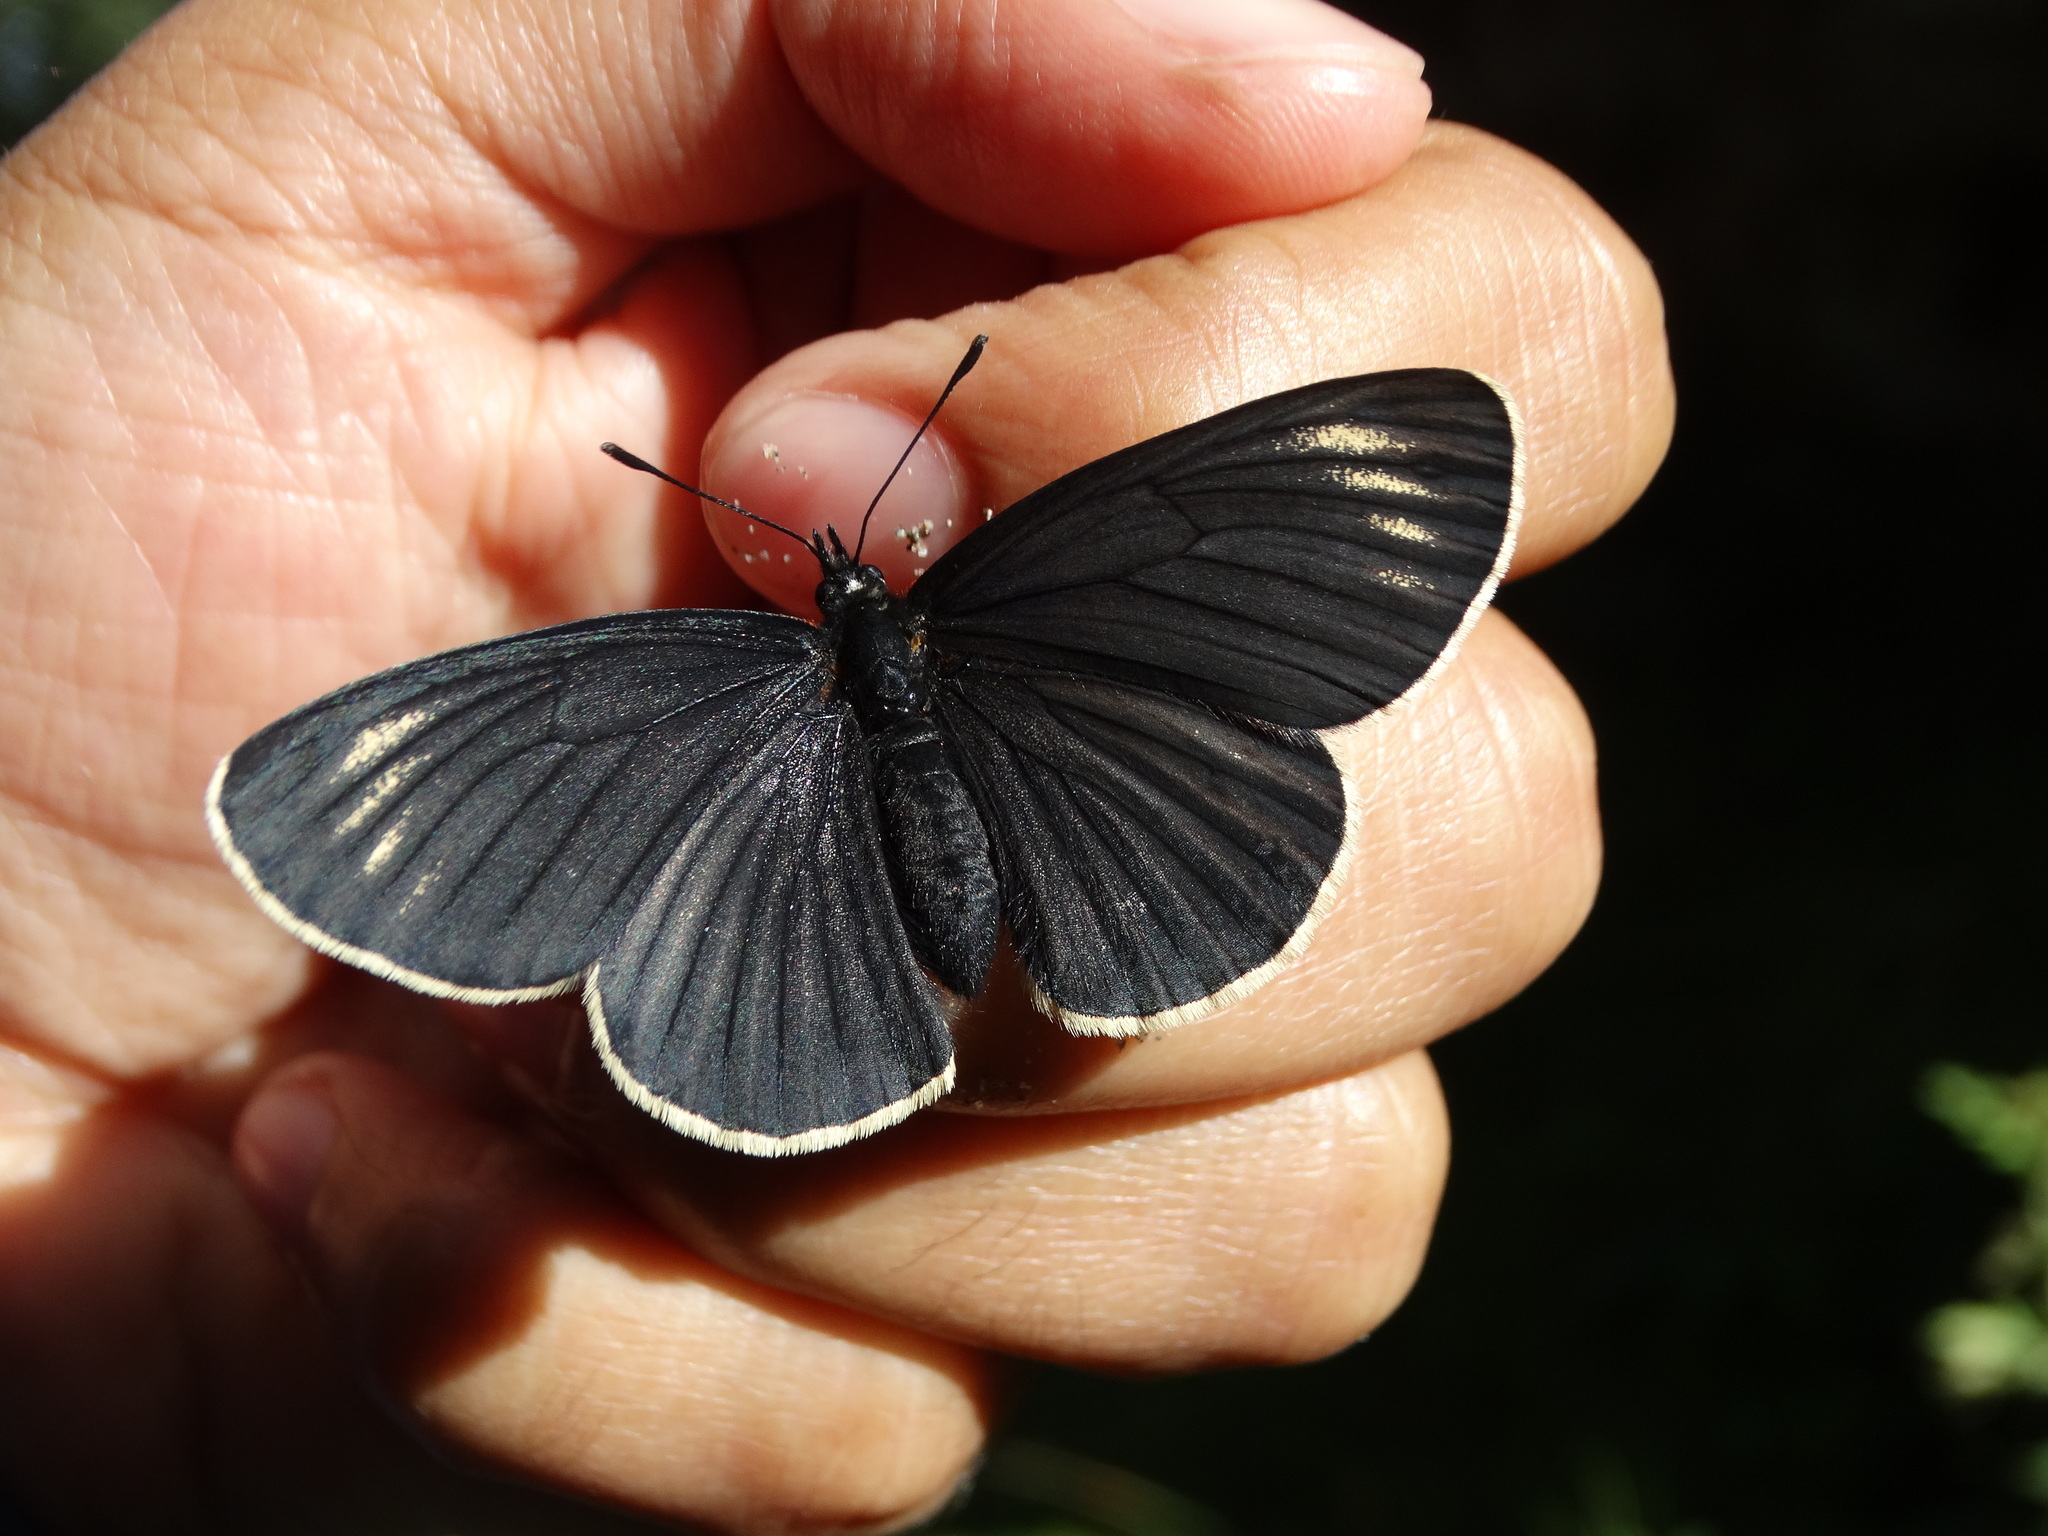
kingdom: Animalia
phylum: Arthropoda
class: Insecta
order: Lepidoptera
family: Nymphalidae
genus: Chlosyne
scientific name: Chlosyne ehrenbergii
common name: White-rayed patch
